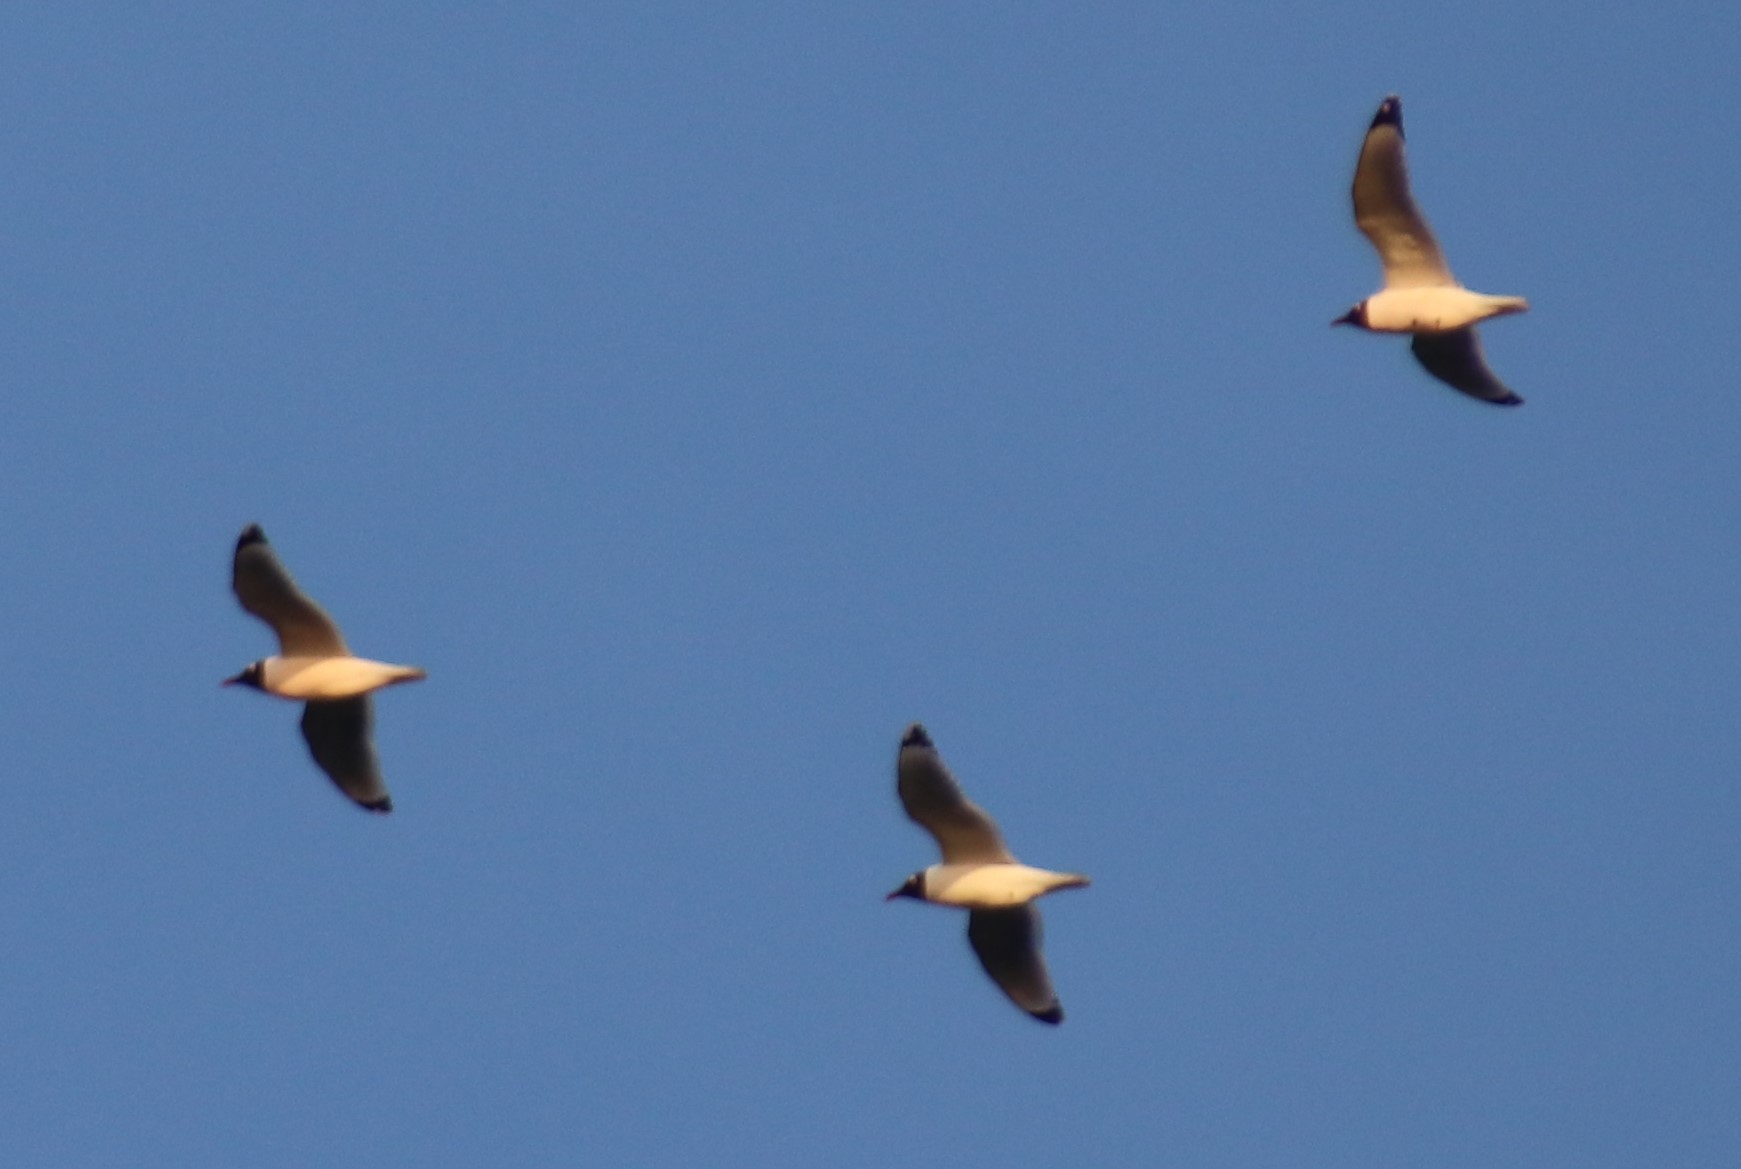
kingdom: Animalia
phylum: Chordata
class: Aves
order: Charadriiformes
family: Laridae
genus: Leucophaeus
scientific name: Leucophaeus pipixcan
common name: Franklin's gull
